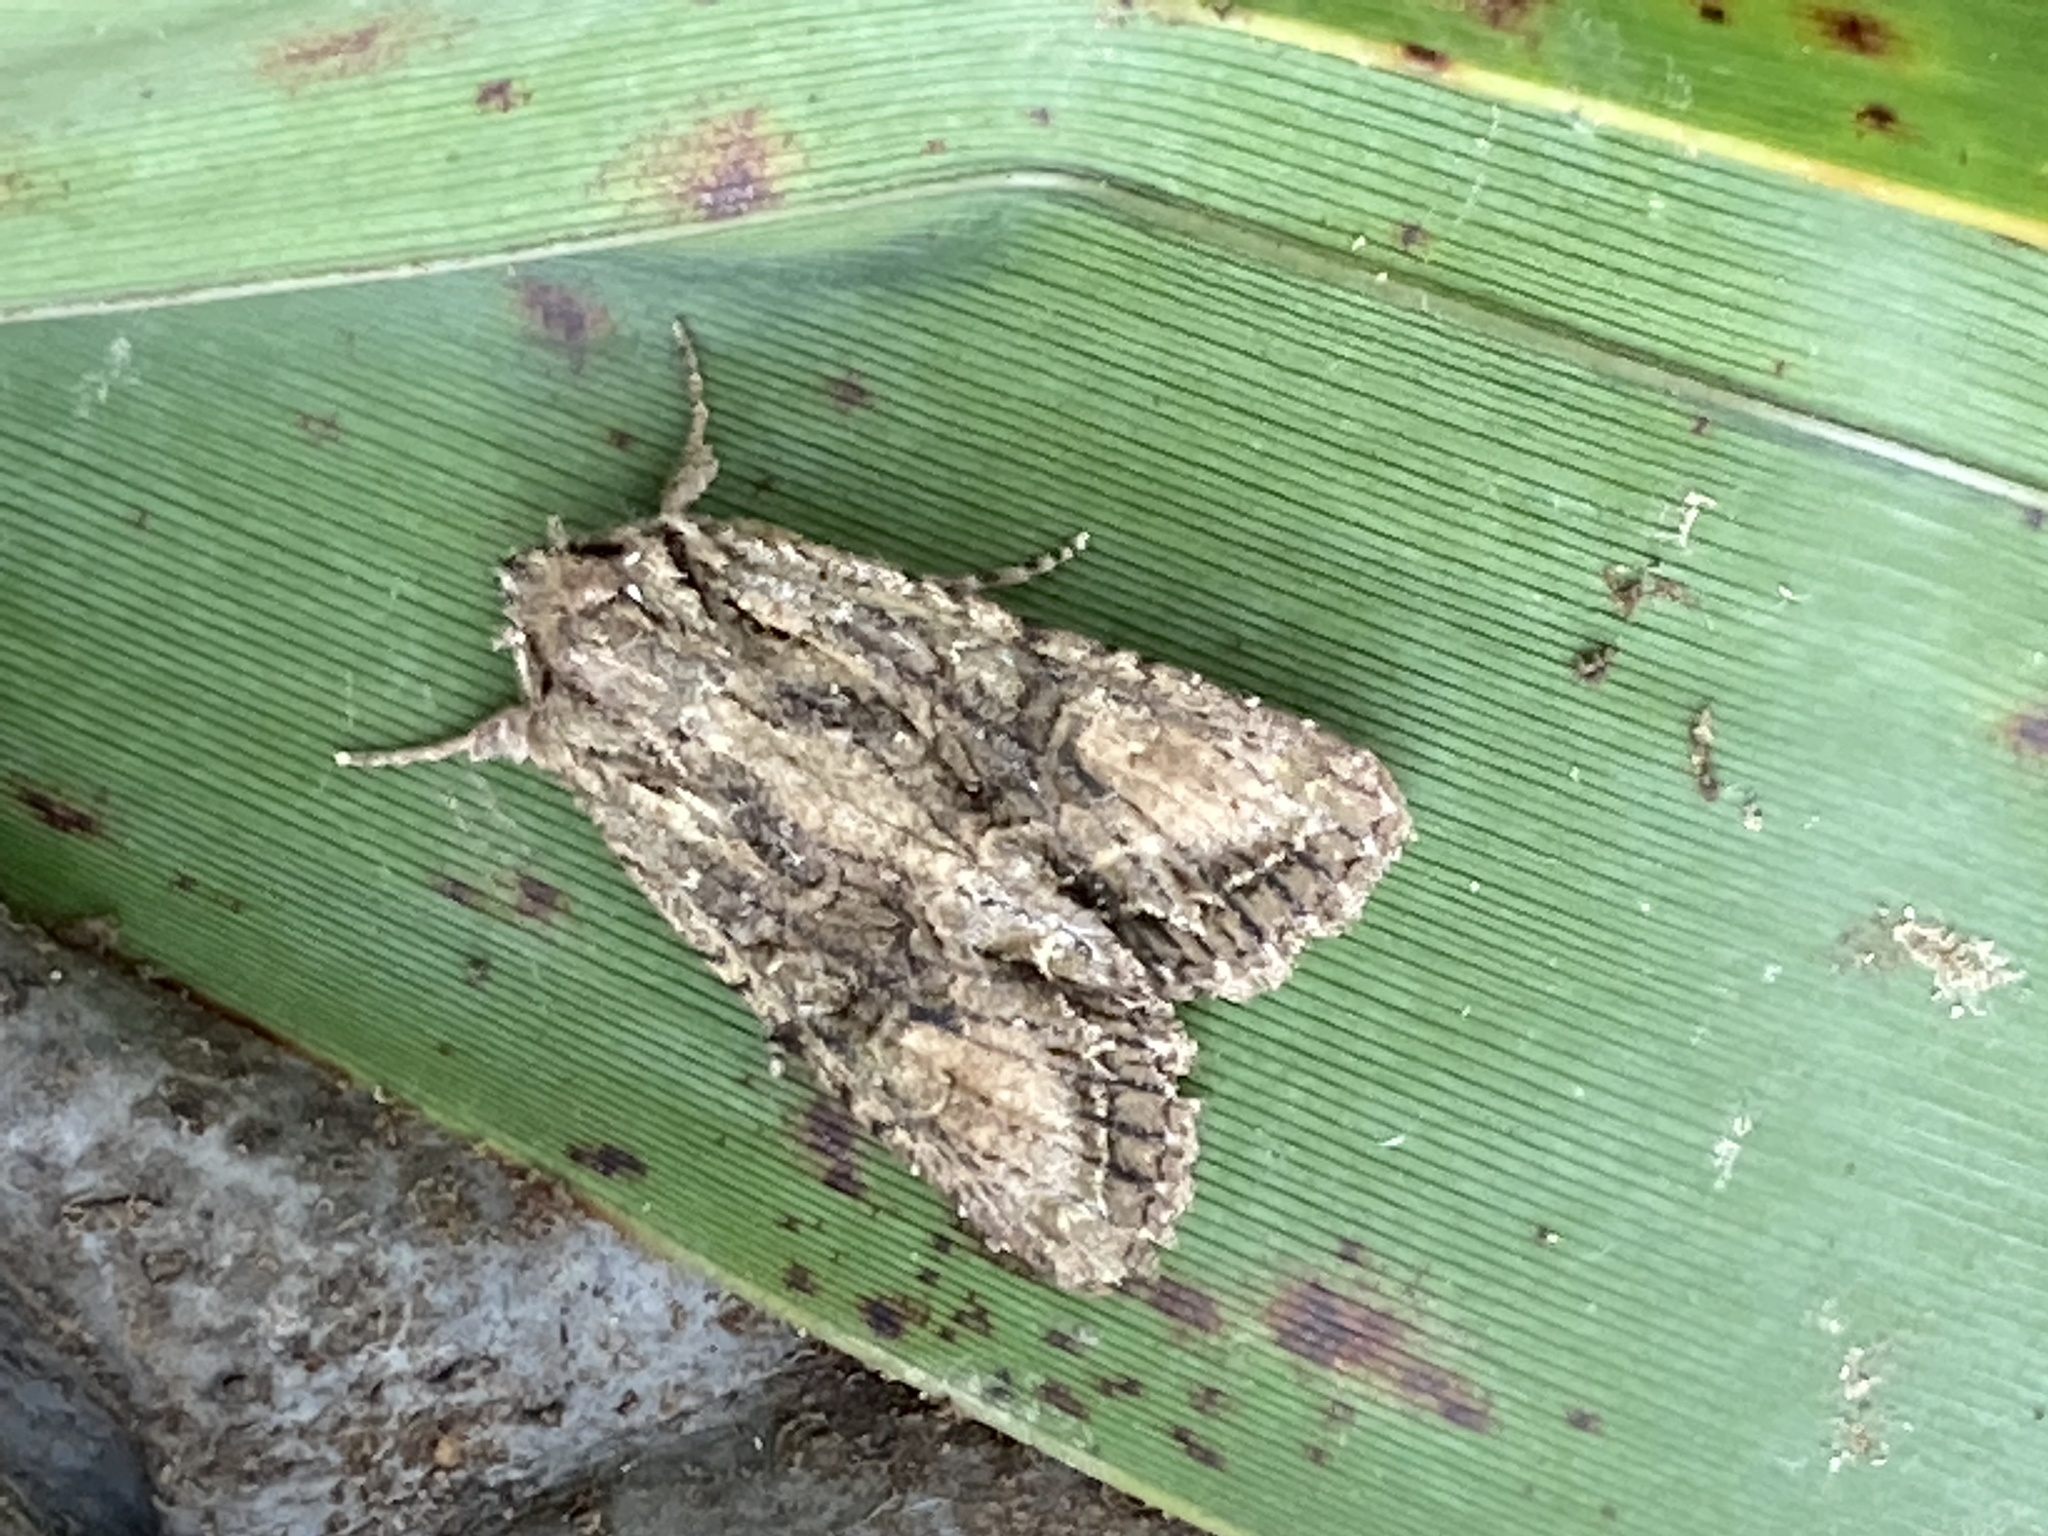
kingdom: Animalia
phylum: Arthropoda
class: Insecta
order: Lepidoptera
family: Noctuidae
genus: Ichneutica
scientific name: Ichneutica mutans
